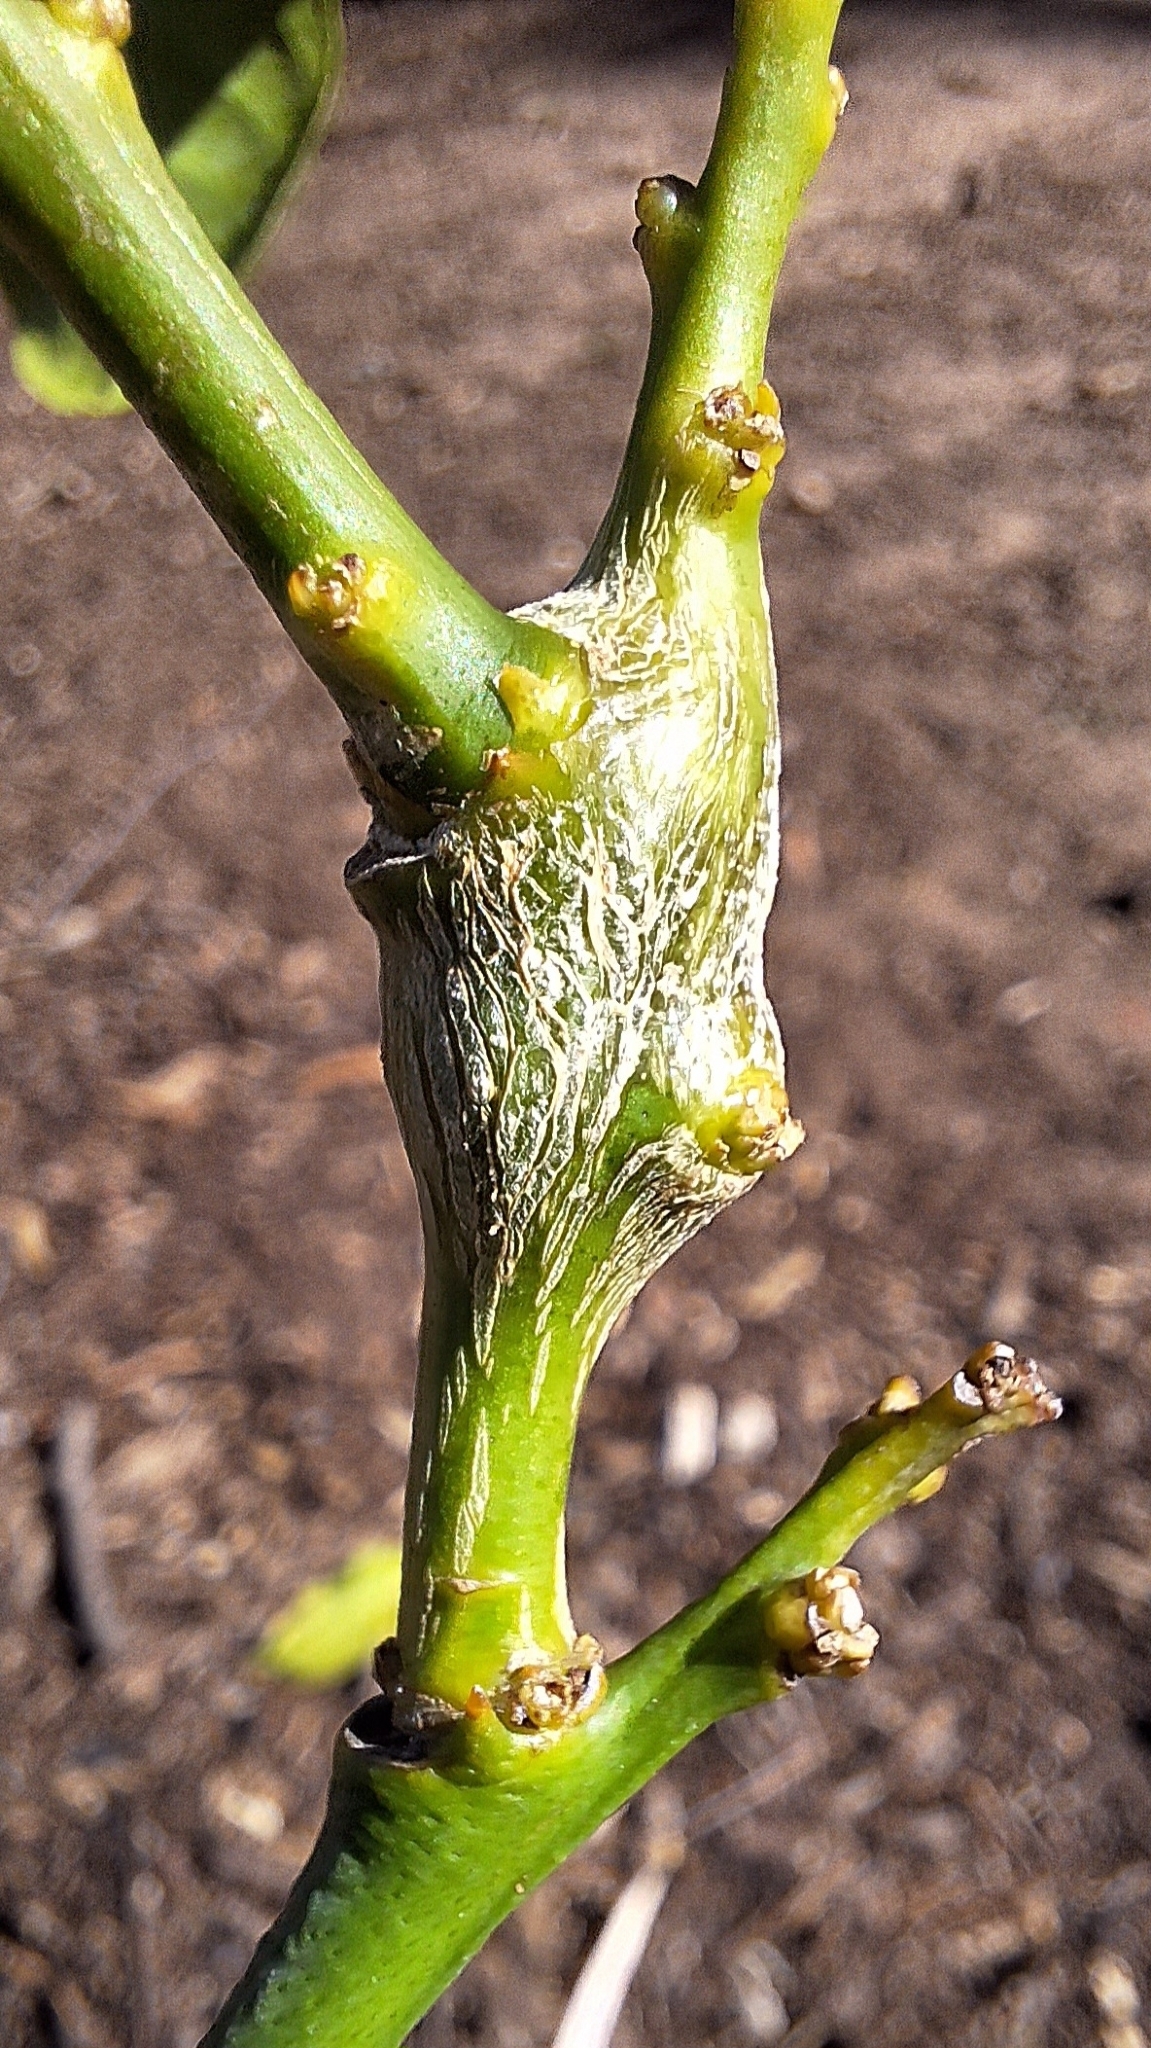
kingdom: Animalia
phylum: Arthropoda
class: Insecta
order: Hymenoptera
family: Eurytomidae
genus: Bruchophagus
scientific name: Bruchophagus fellis
